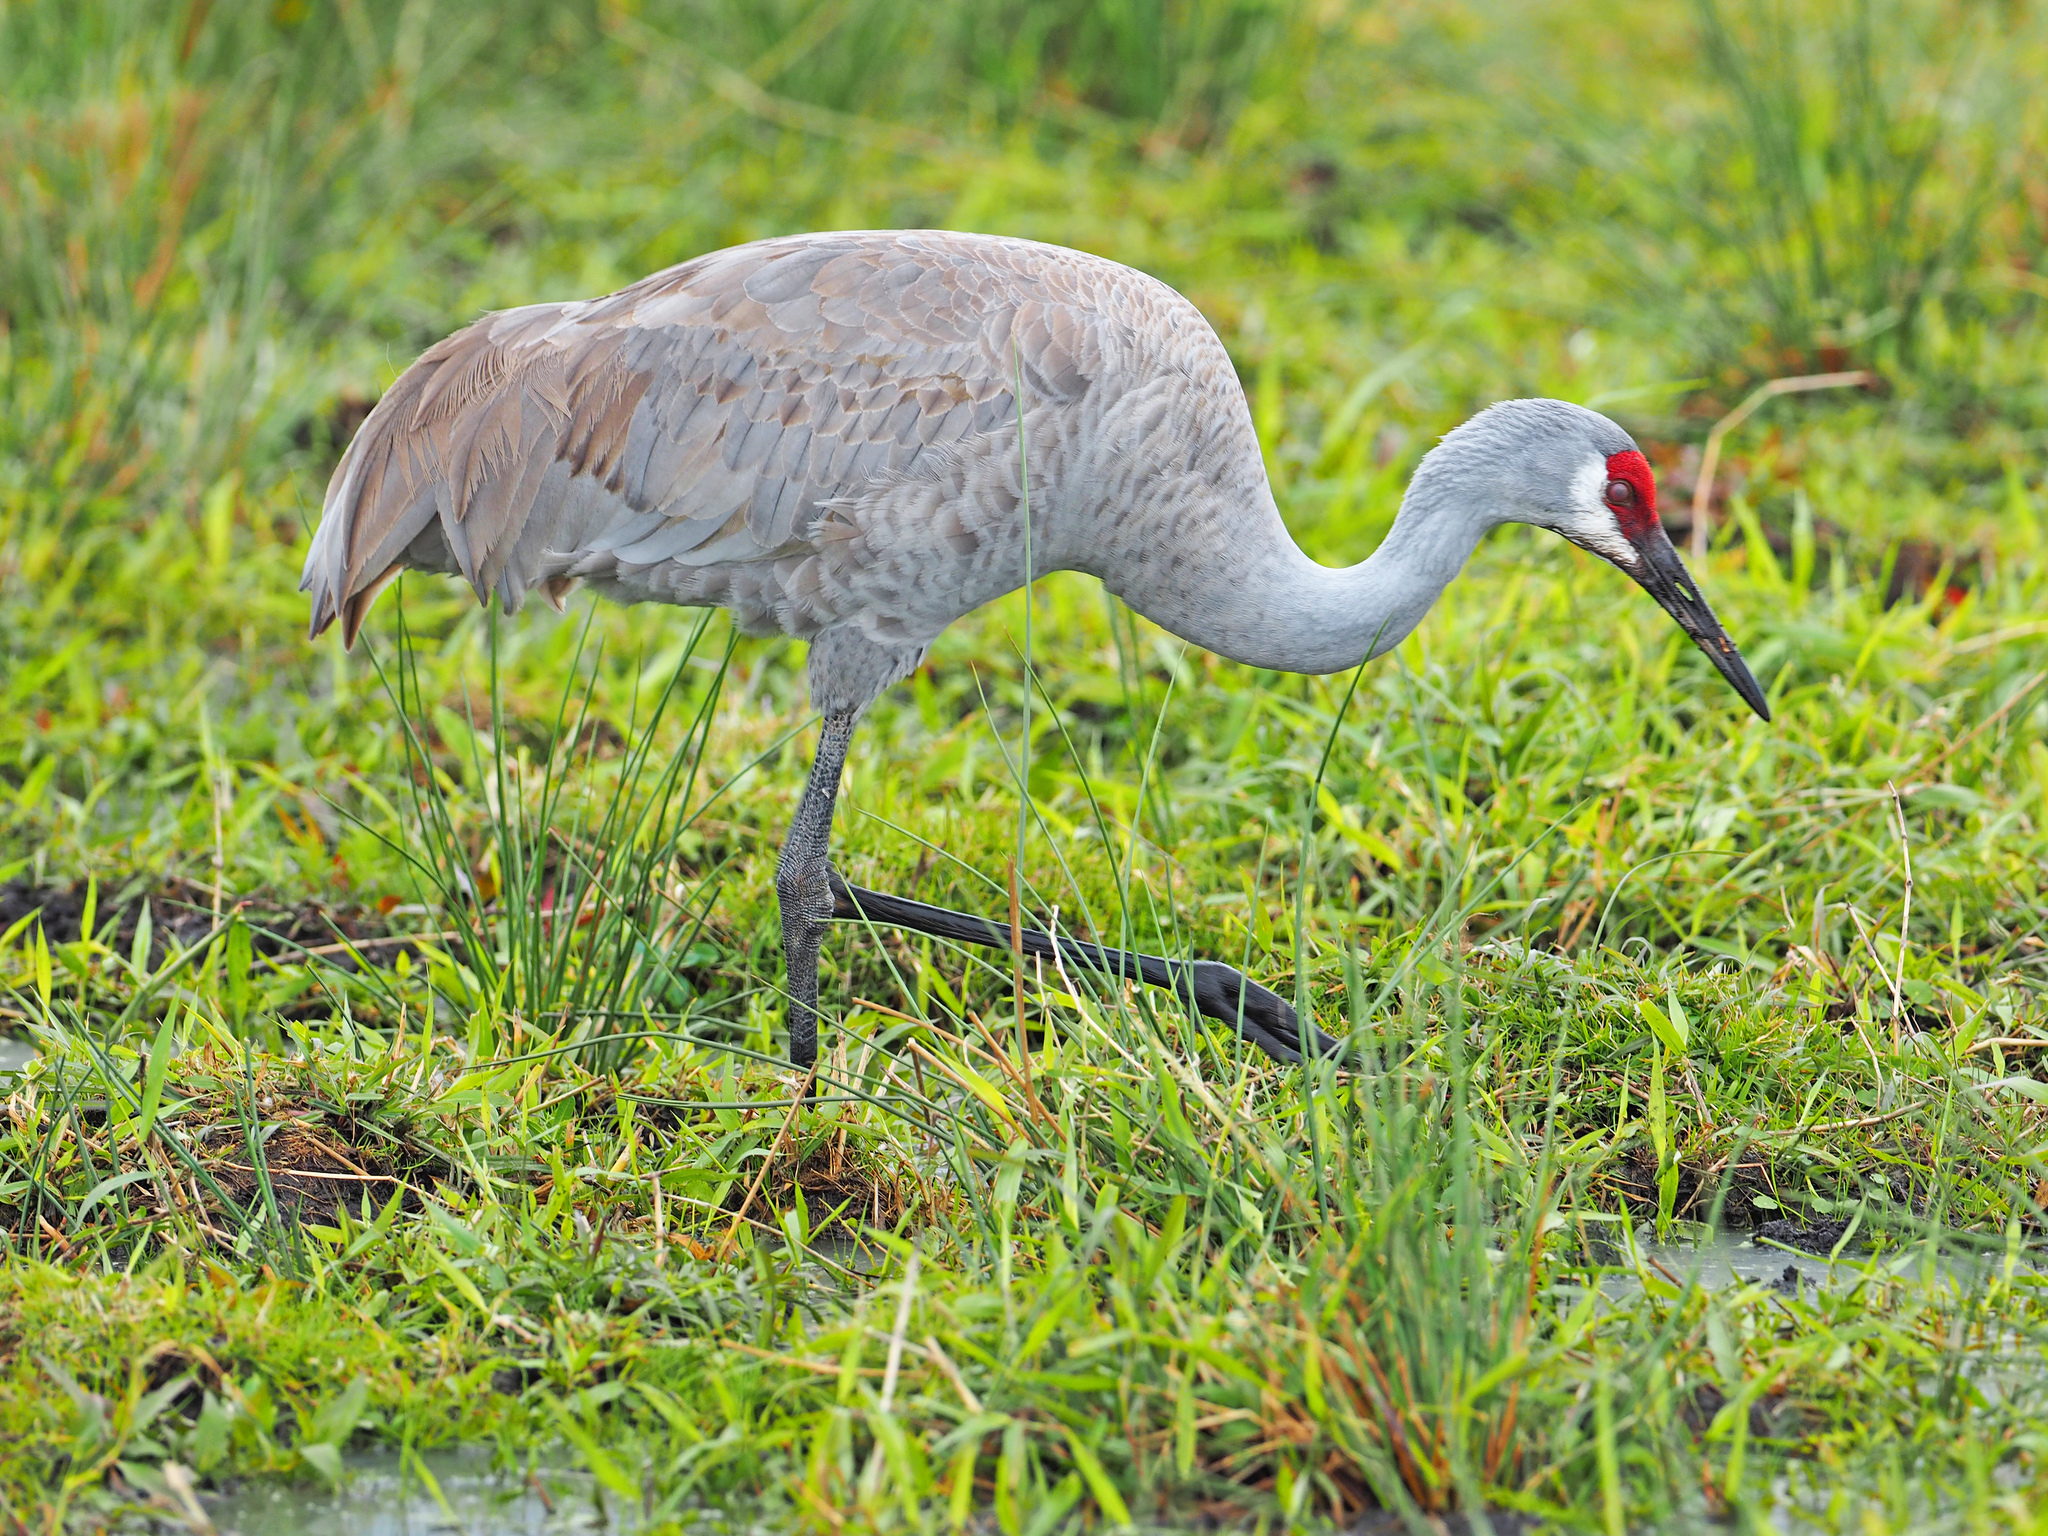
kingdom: Animalia
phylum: Chordata
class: Aves
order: Gruiformes
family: Gruidae
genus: Grus
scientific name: Grus canadensis
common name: Sandhill crane
